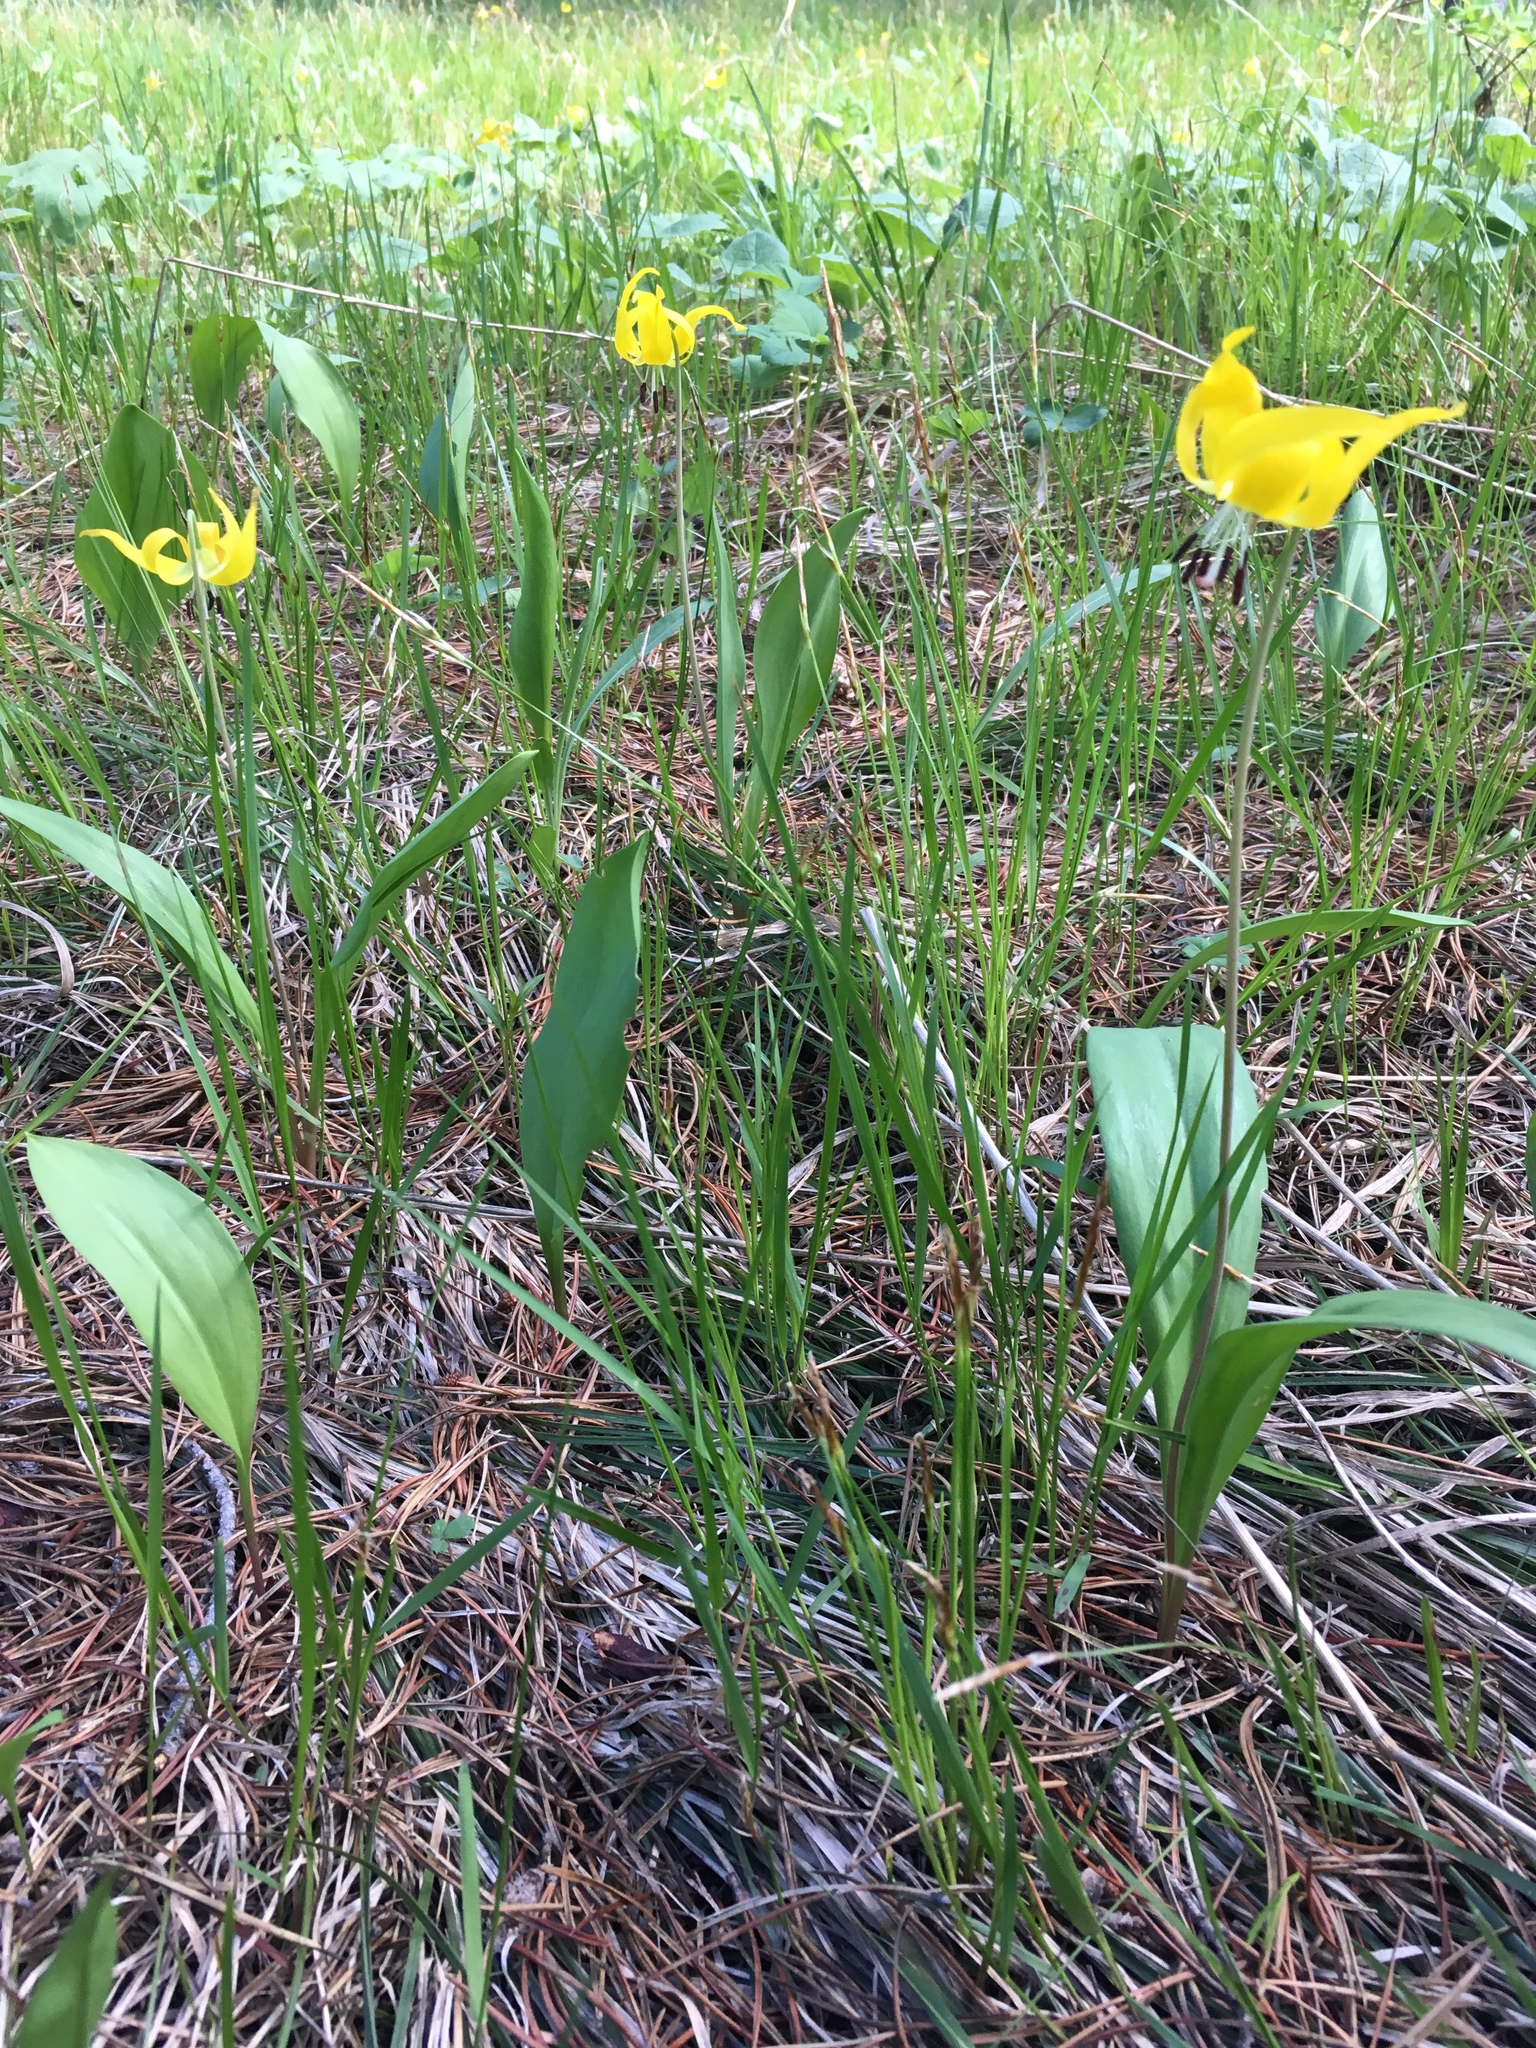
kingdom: Plantae
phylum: Tracheophyta
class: Liliopsida
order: Liliales
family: Liliaceae
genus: Erythronium
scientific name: Erythronium grandiflorum
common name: Avalanche-lily
